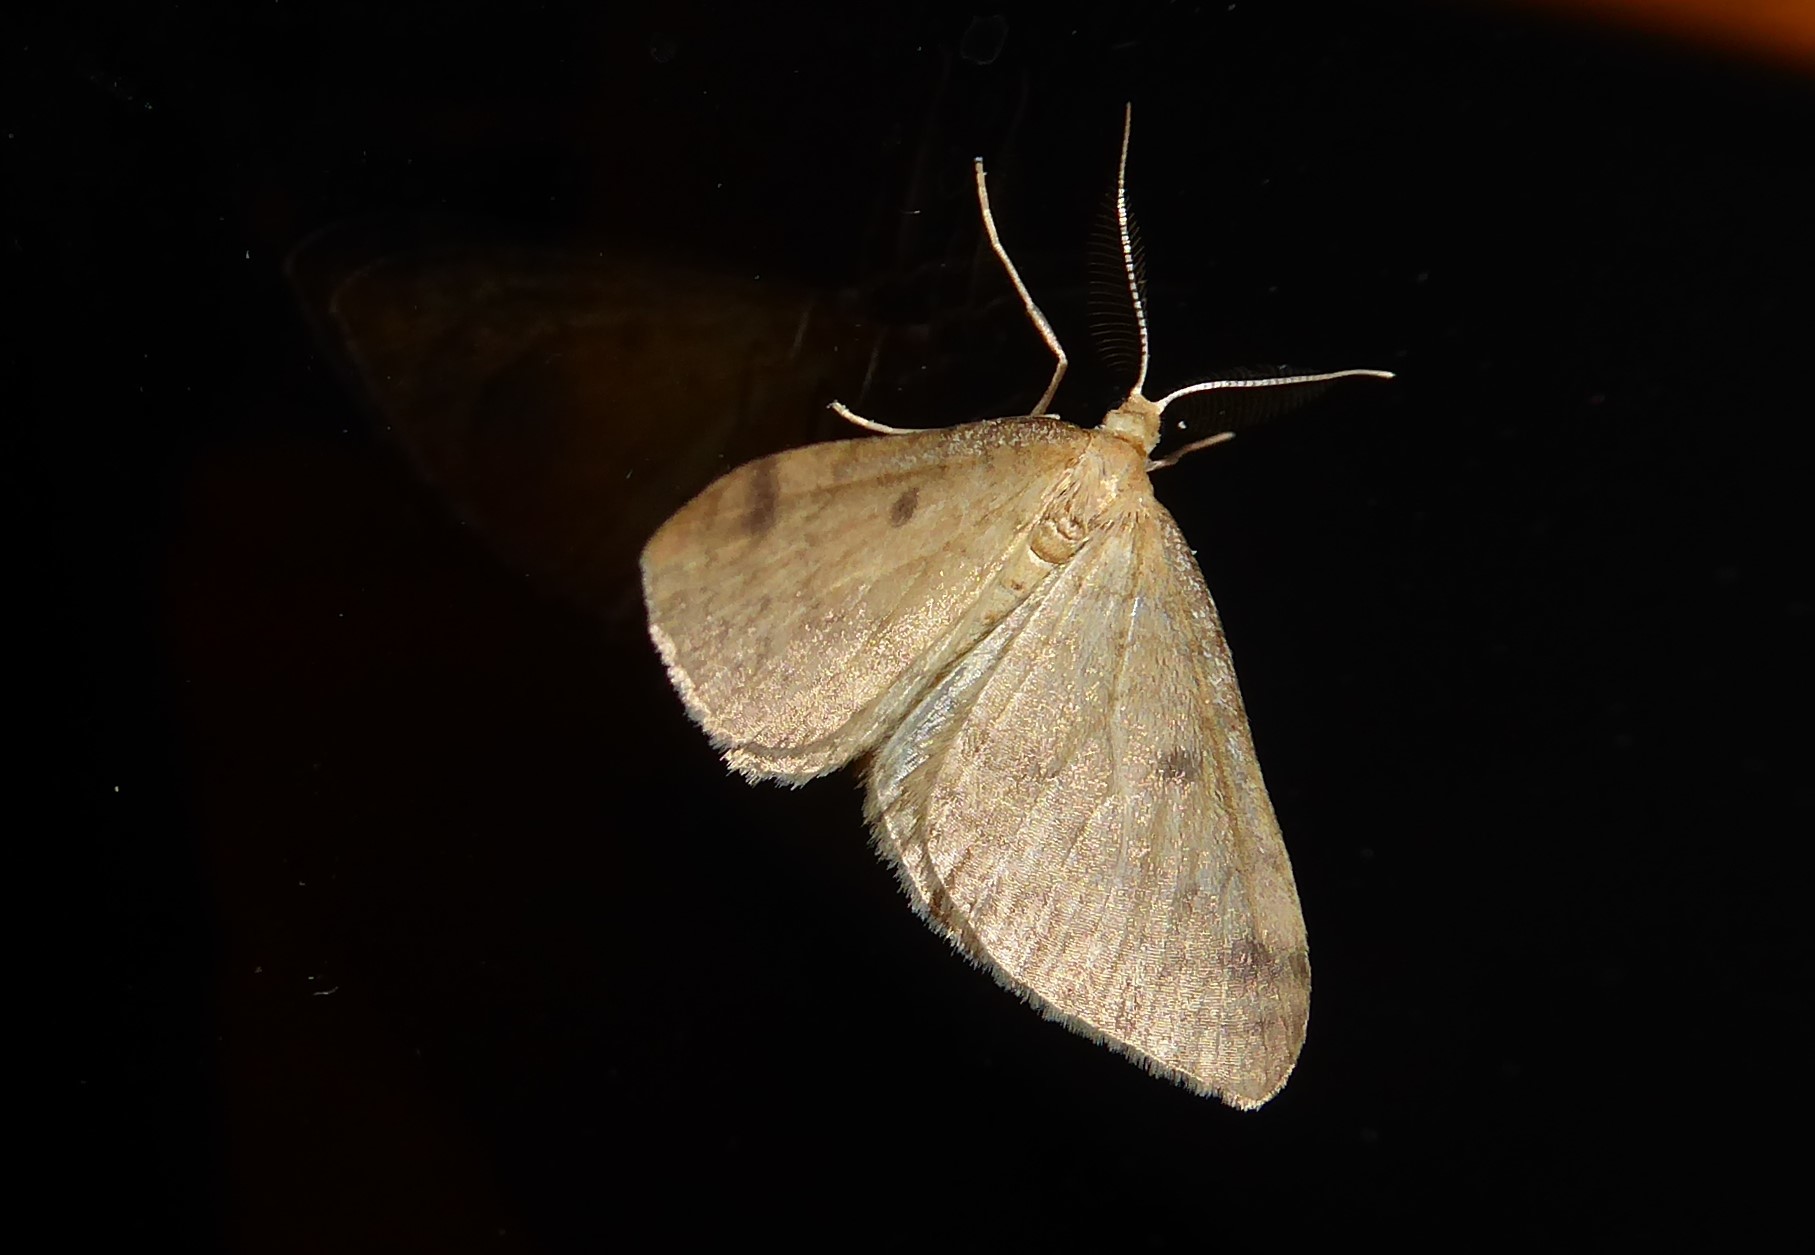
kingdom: Animalia
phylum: Arthropoda
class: Insecta
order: Lepidoptera
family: Crambidae
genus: Udea
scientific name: Udea Mnesictena flavidalis
